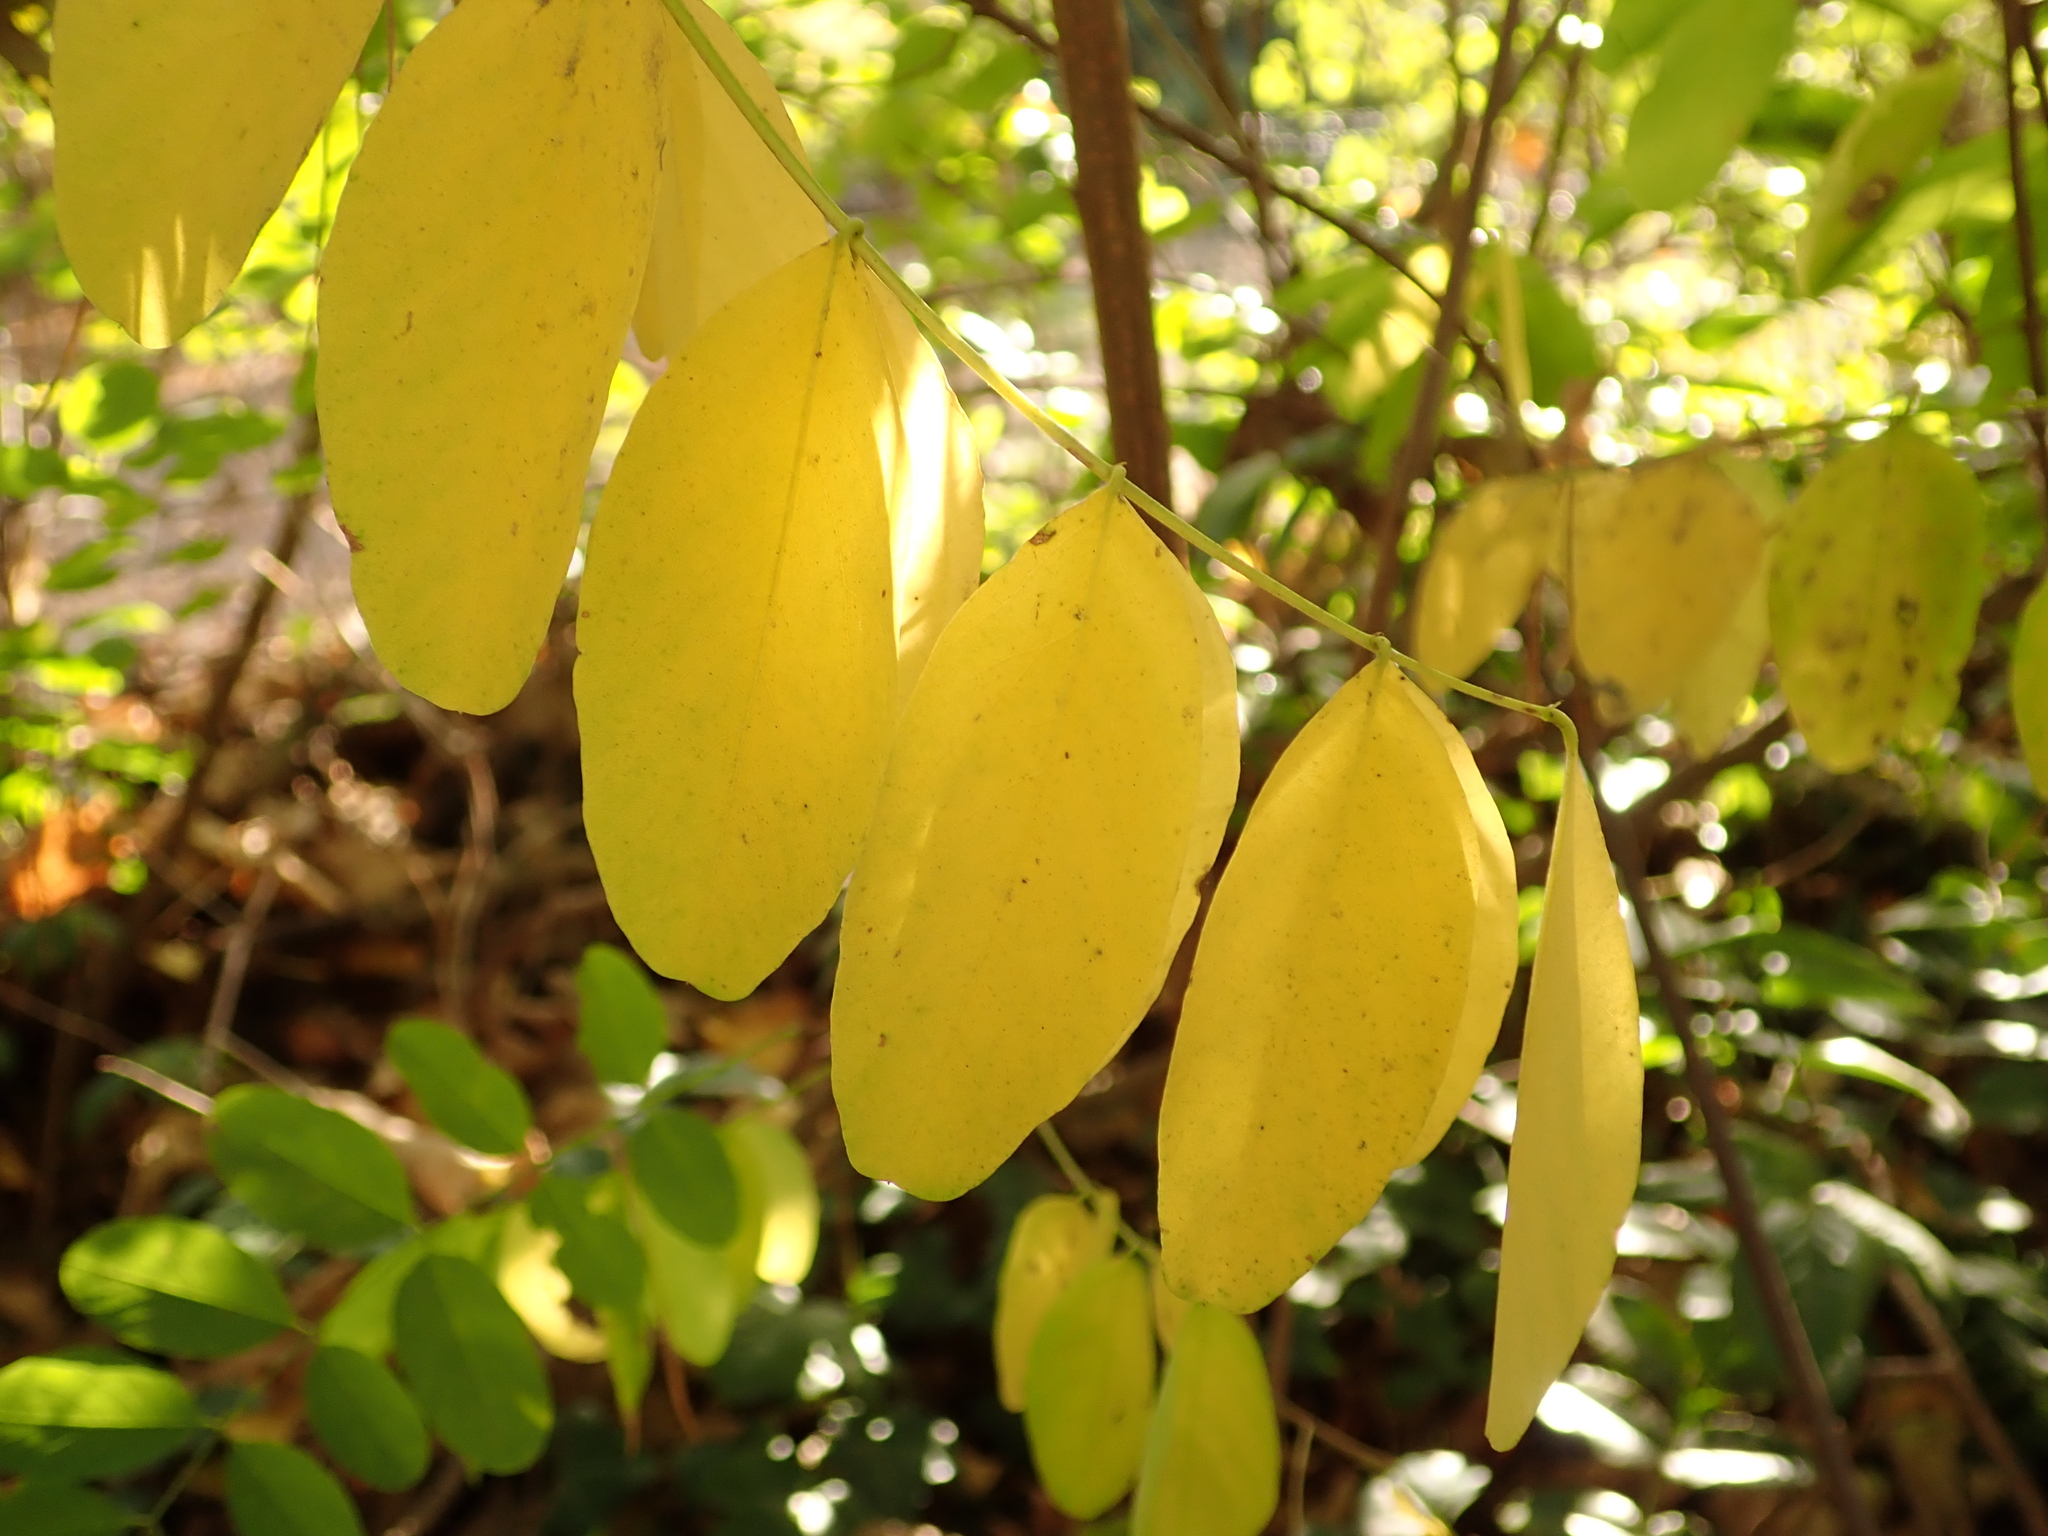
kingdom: Plantae
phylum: Tracheophyta
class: Magnoliopsida
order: Fabales
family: Fabaceae
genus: Robinia
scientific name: Robinia pseudoacacia
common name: Black locust
